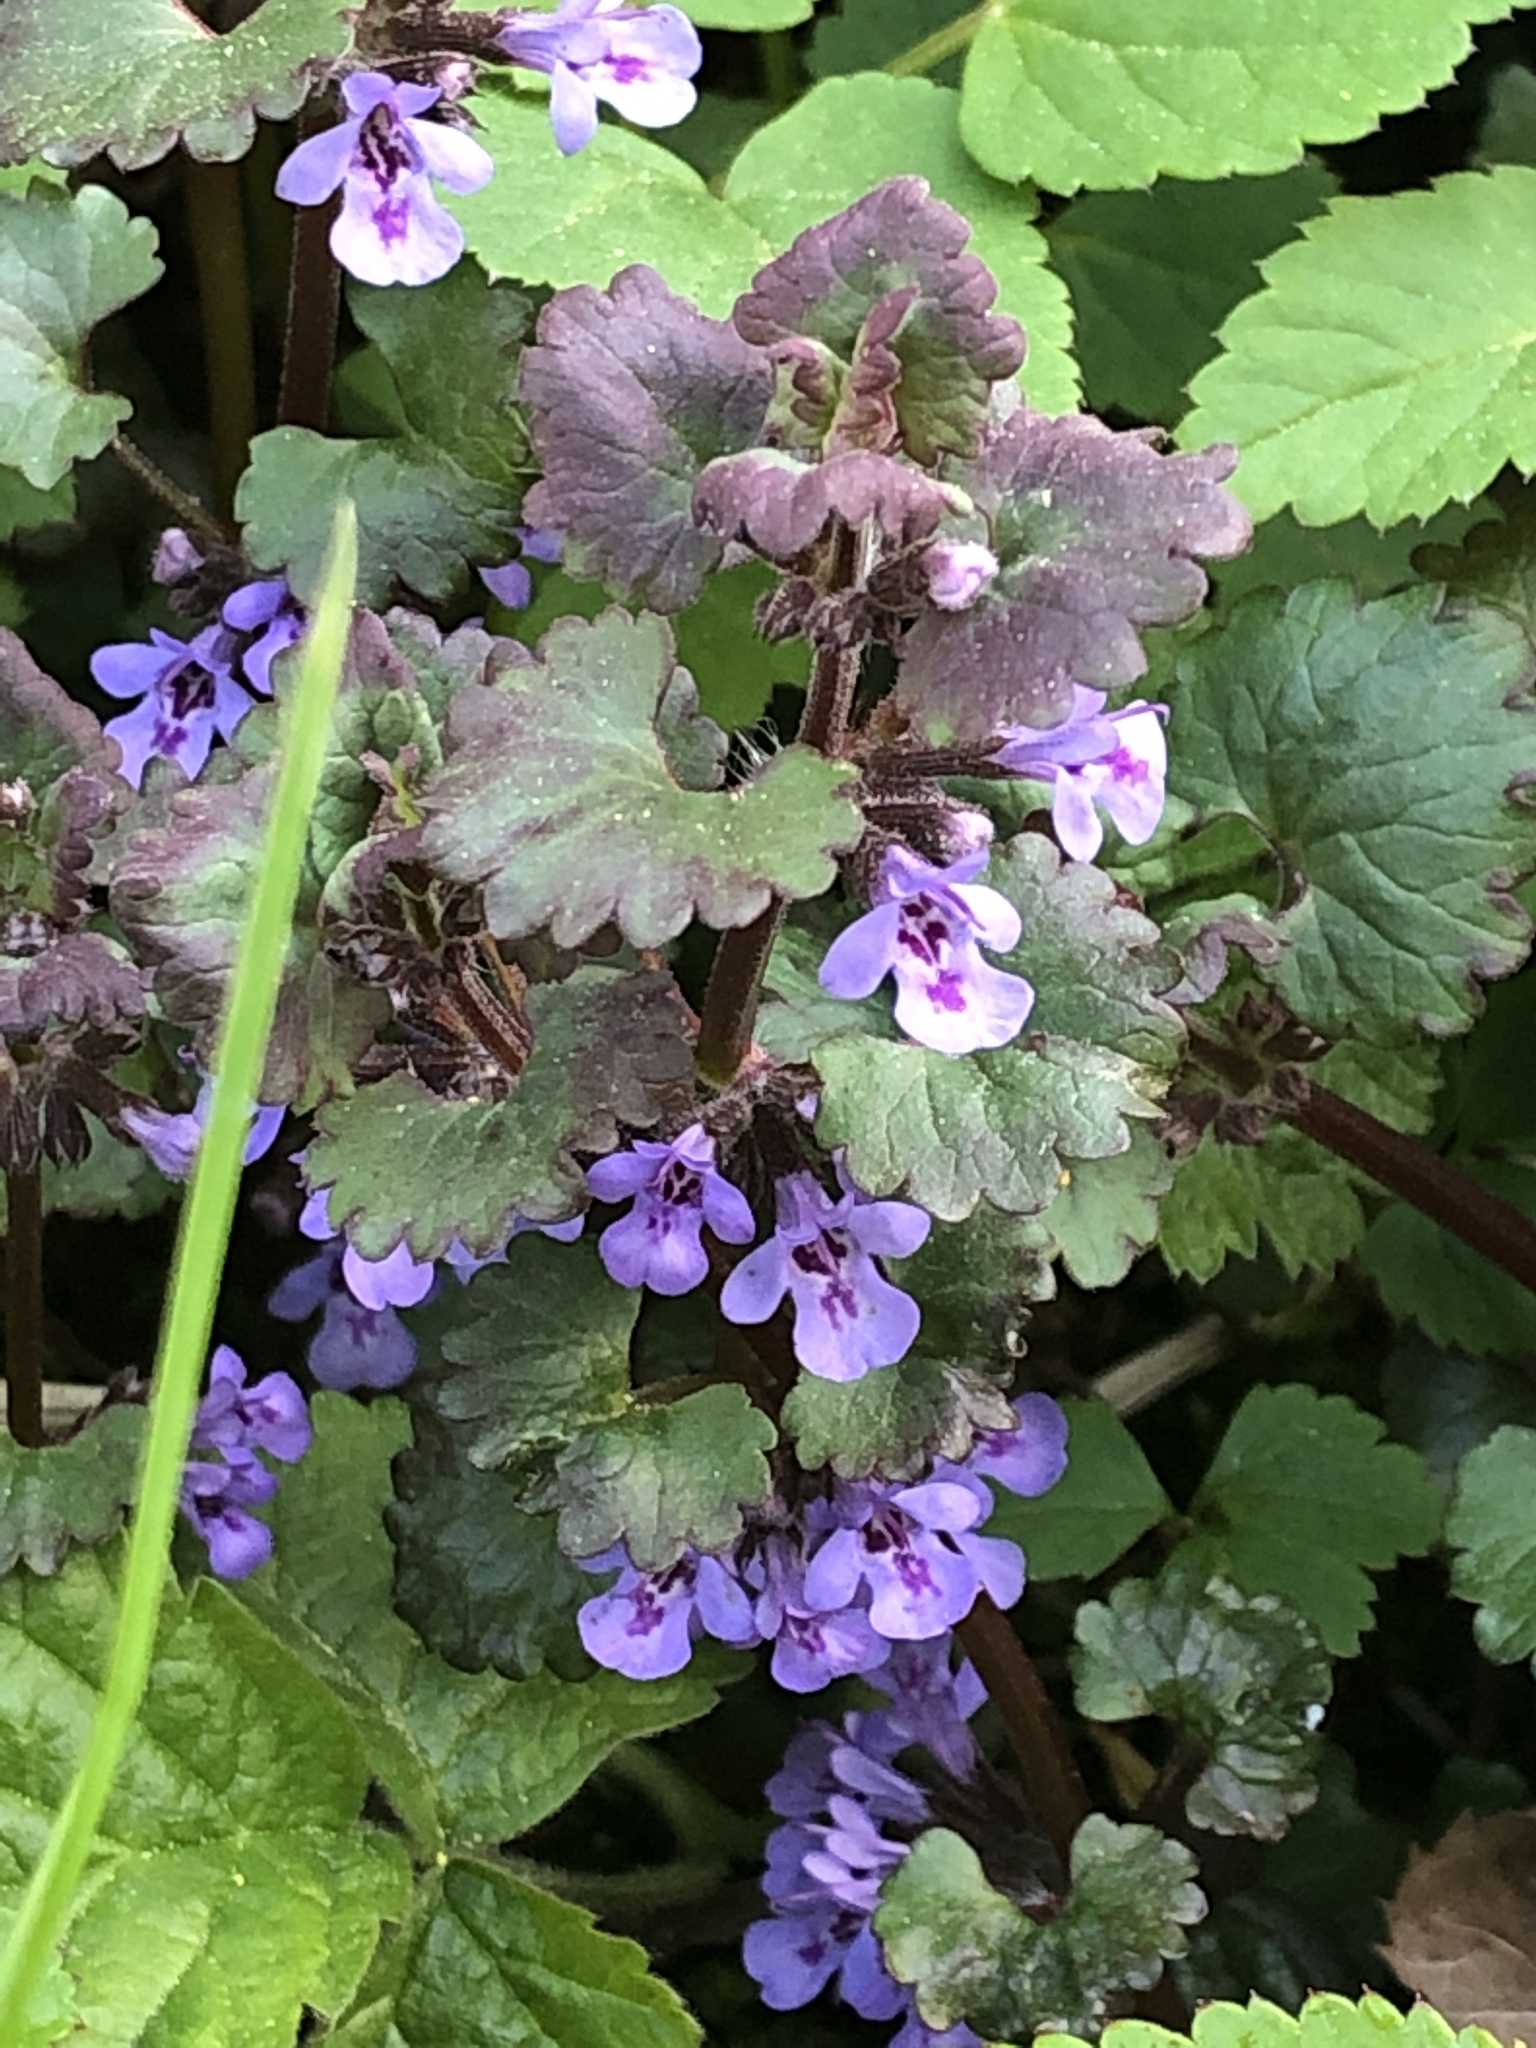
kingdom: Plantae
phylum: Tracheophyta
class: Magnoliopsida
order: Lamiales
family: Lamiaceae
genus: Glechoma
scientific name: Glechoma hederacea
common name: Ground ivy
